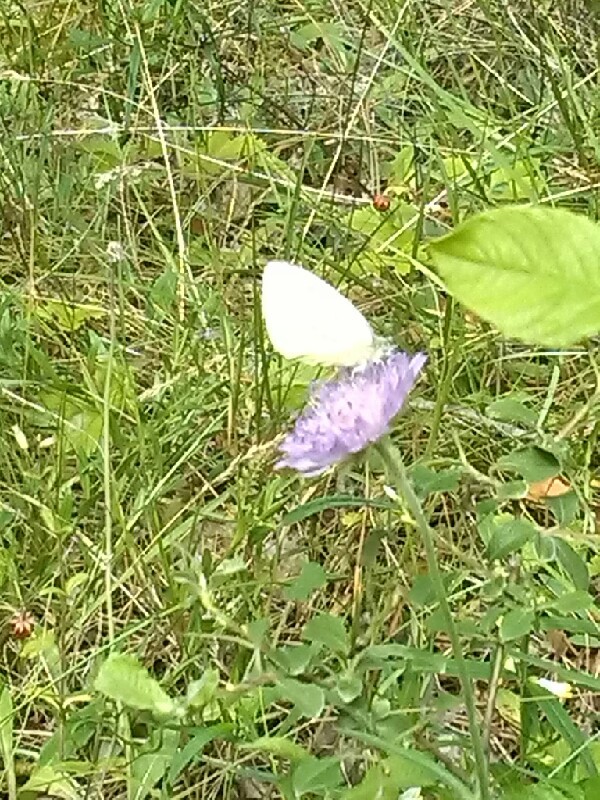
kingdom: Animalia
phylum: Arthropoda
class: Insecta
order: Lepidoptera
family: Pieridae
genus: Pieris
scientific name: Pieris napi
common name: Green-veined white
